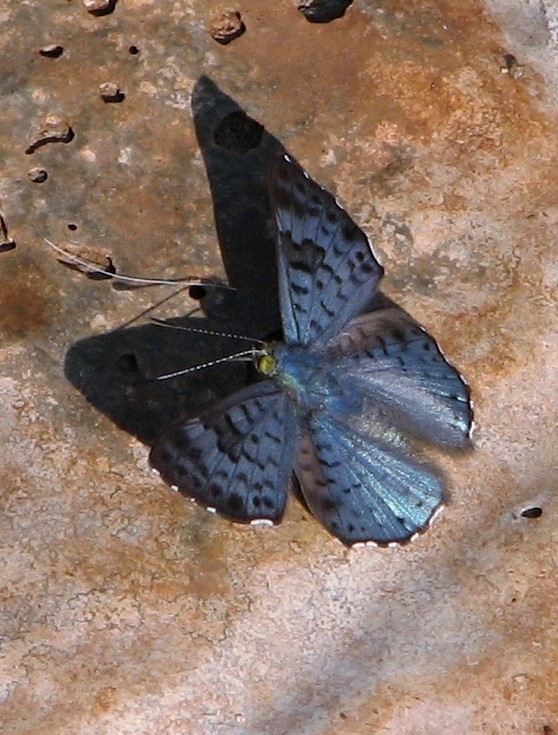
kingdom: Animalia
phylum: Arthropoda
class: Insecta
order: Lepidoptera
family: Riodinidae
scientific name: Riodinidae
